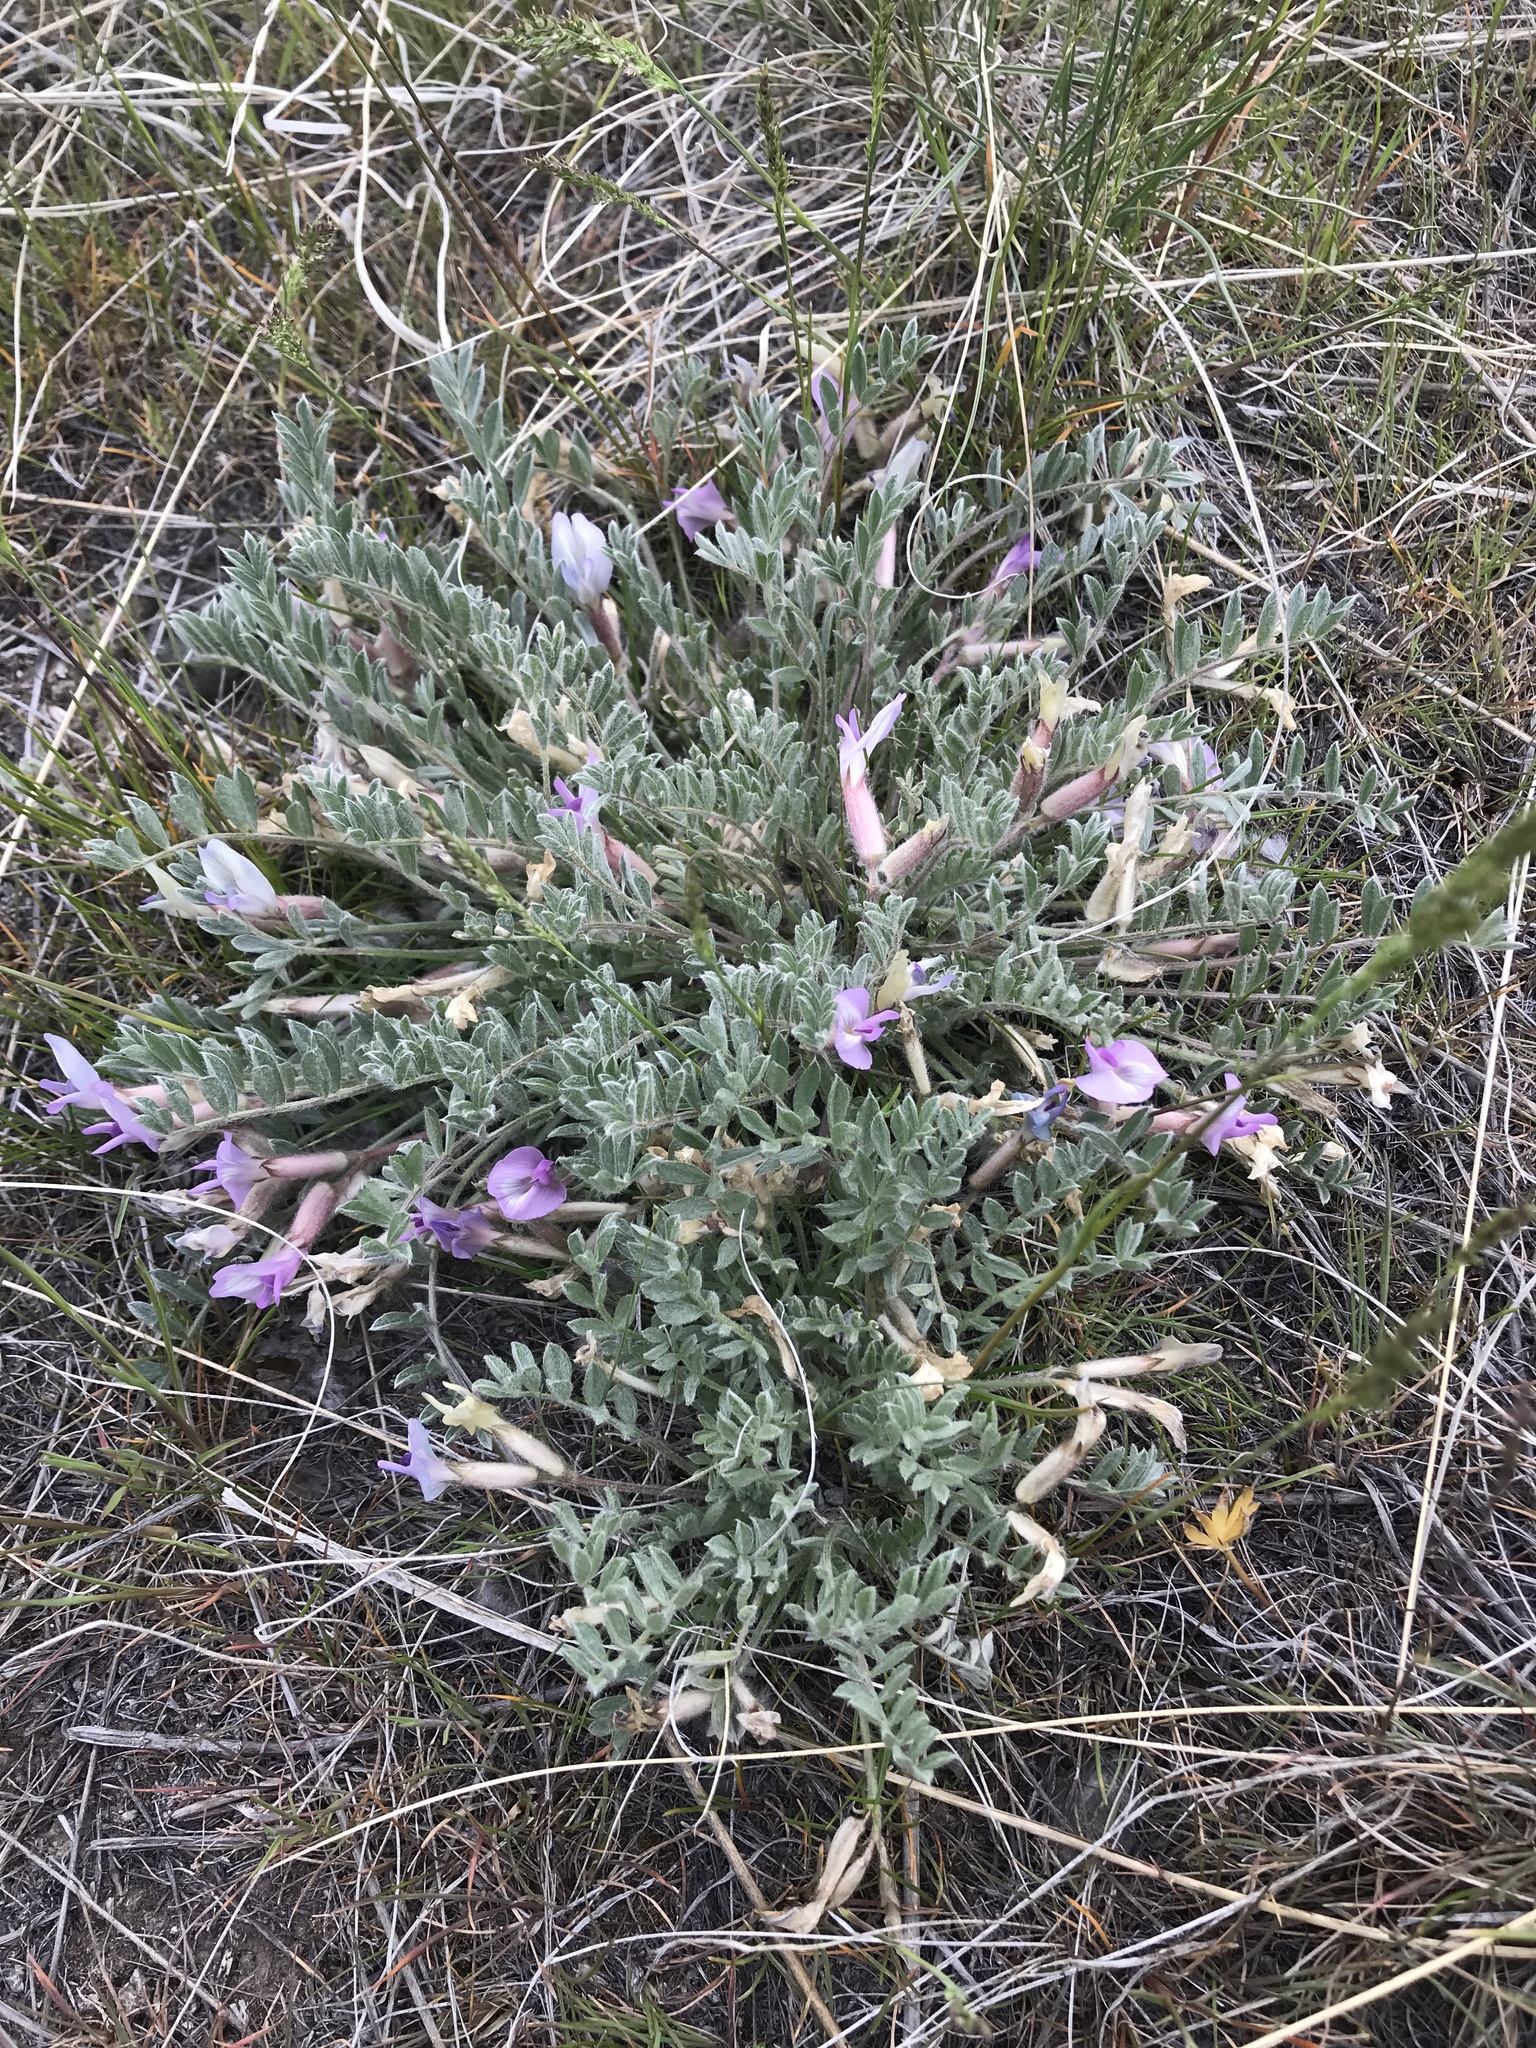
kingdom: Plantae
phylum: Tracheophyta
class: Magnoliopsida
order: Fabales
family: Fabaceae
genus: Astragalus
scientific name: Astragalus purshii
